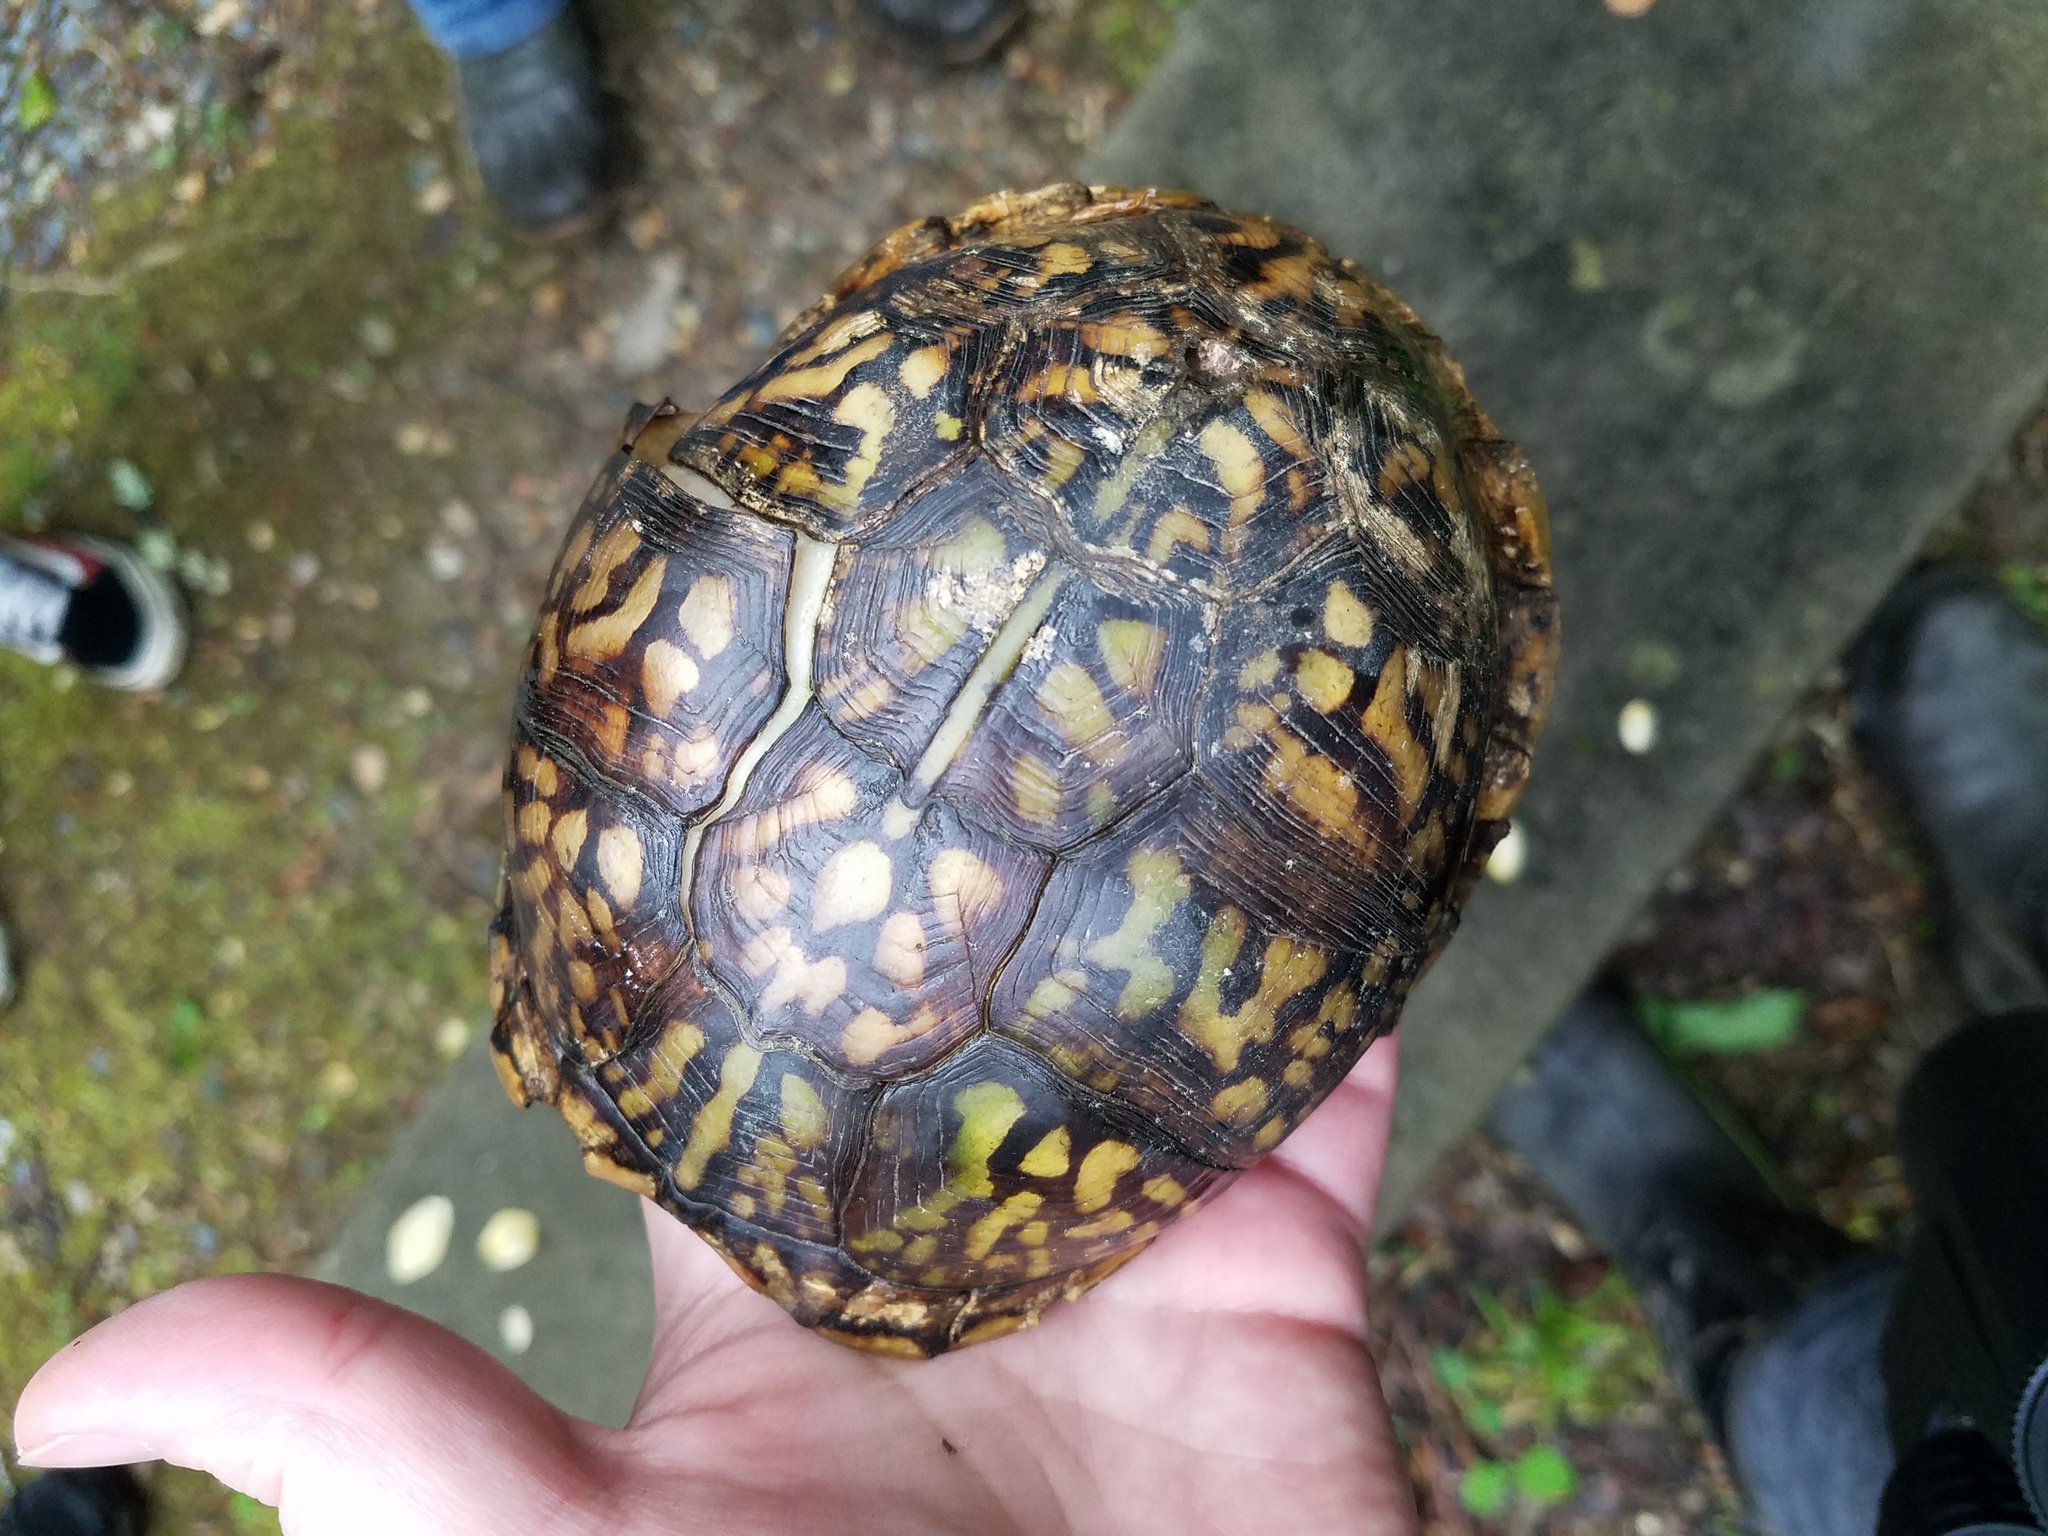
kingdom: Animalia
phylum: Chordata
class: Testudines
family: Emydidae
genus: Terrapene
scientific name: Terrapene carolina
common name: Common box turtle
